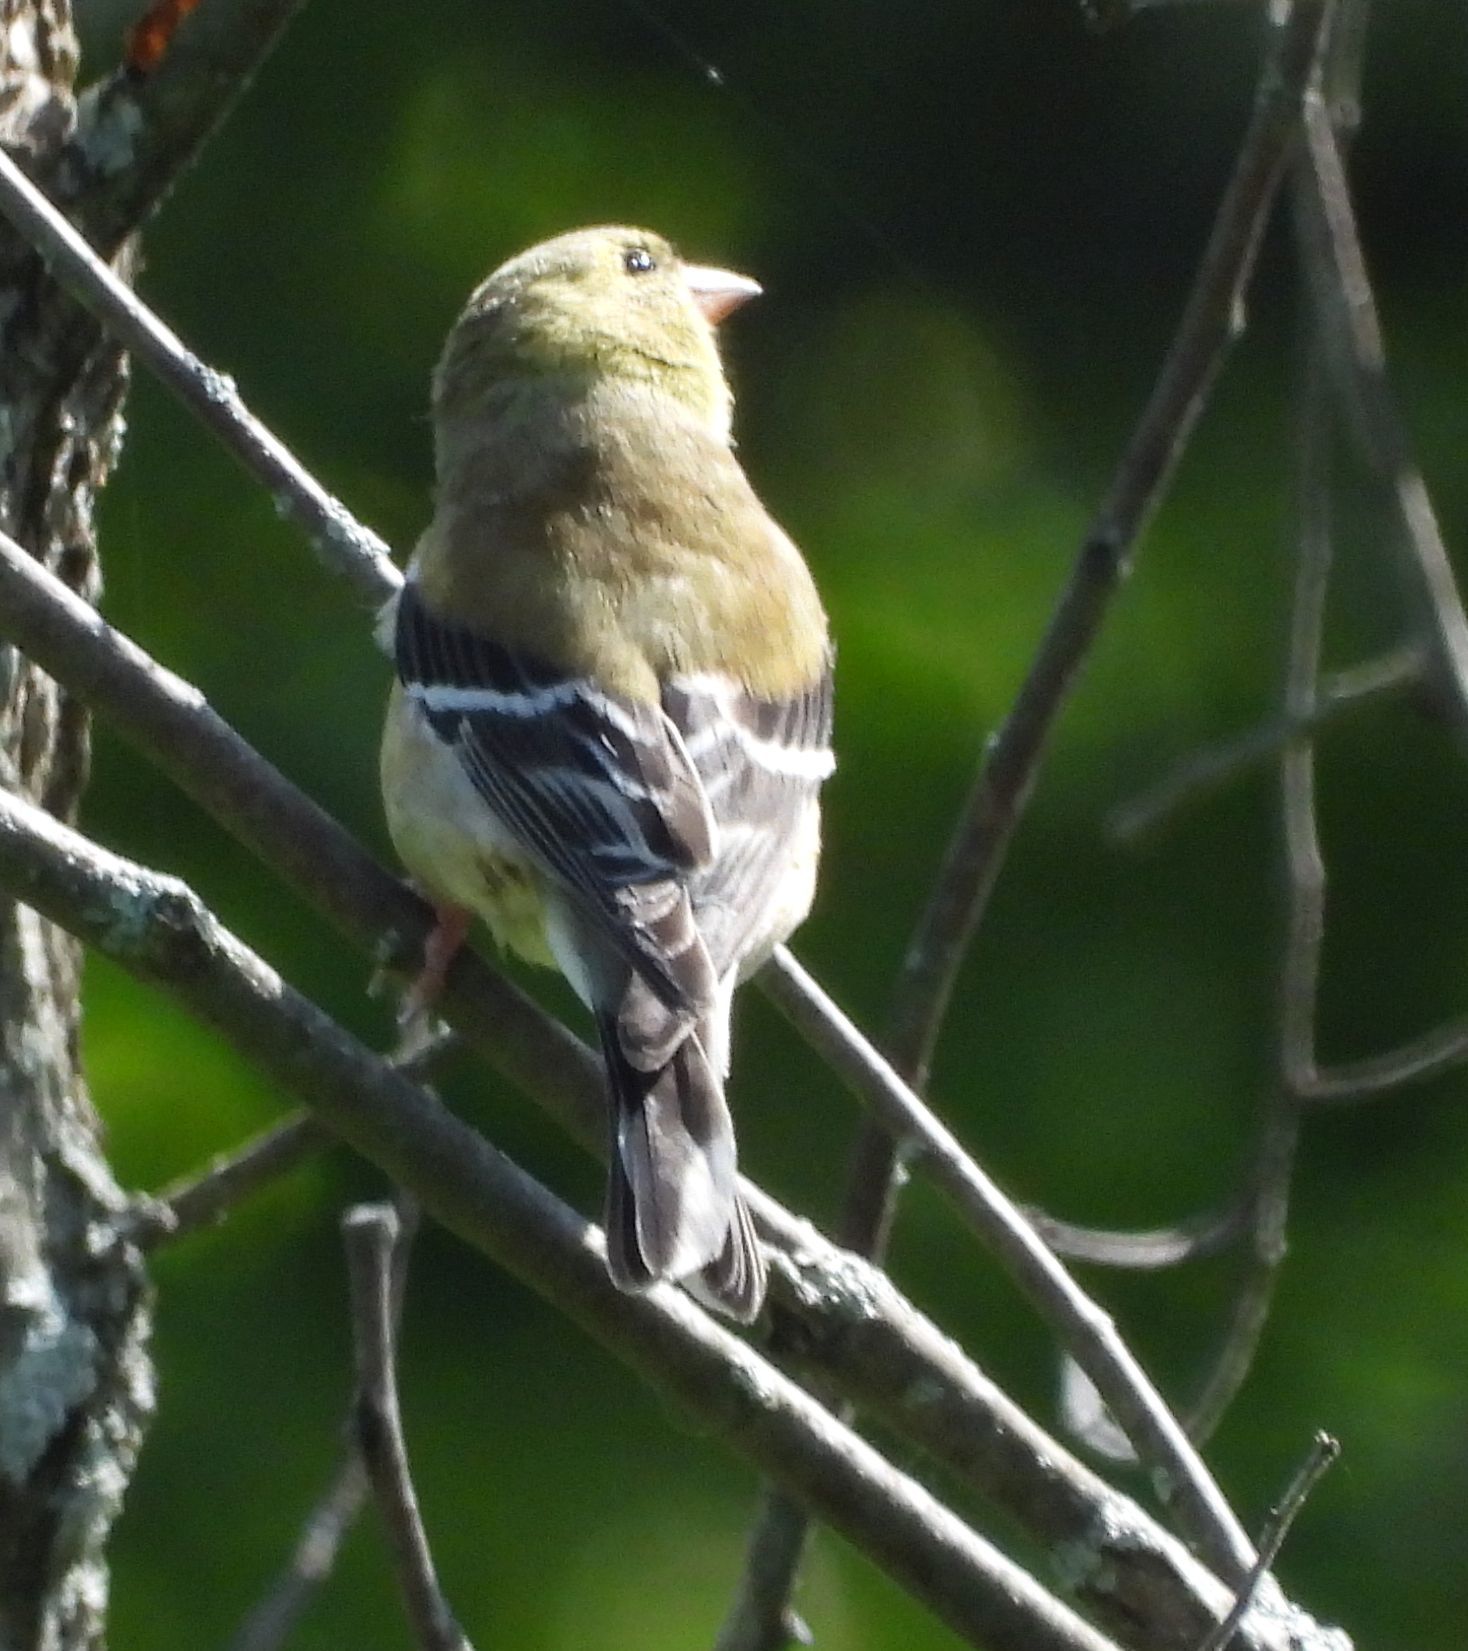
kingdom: Animalia
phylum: Chordata
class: Aves
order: Passeriformes
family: Fringillidae
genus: Spinus
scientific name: Spinus tristis
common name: American goldfinch
